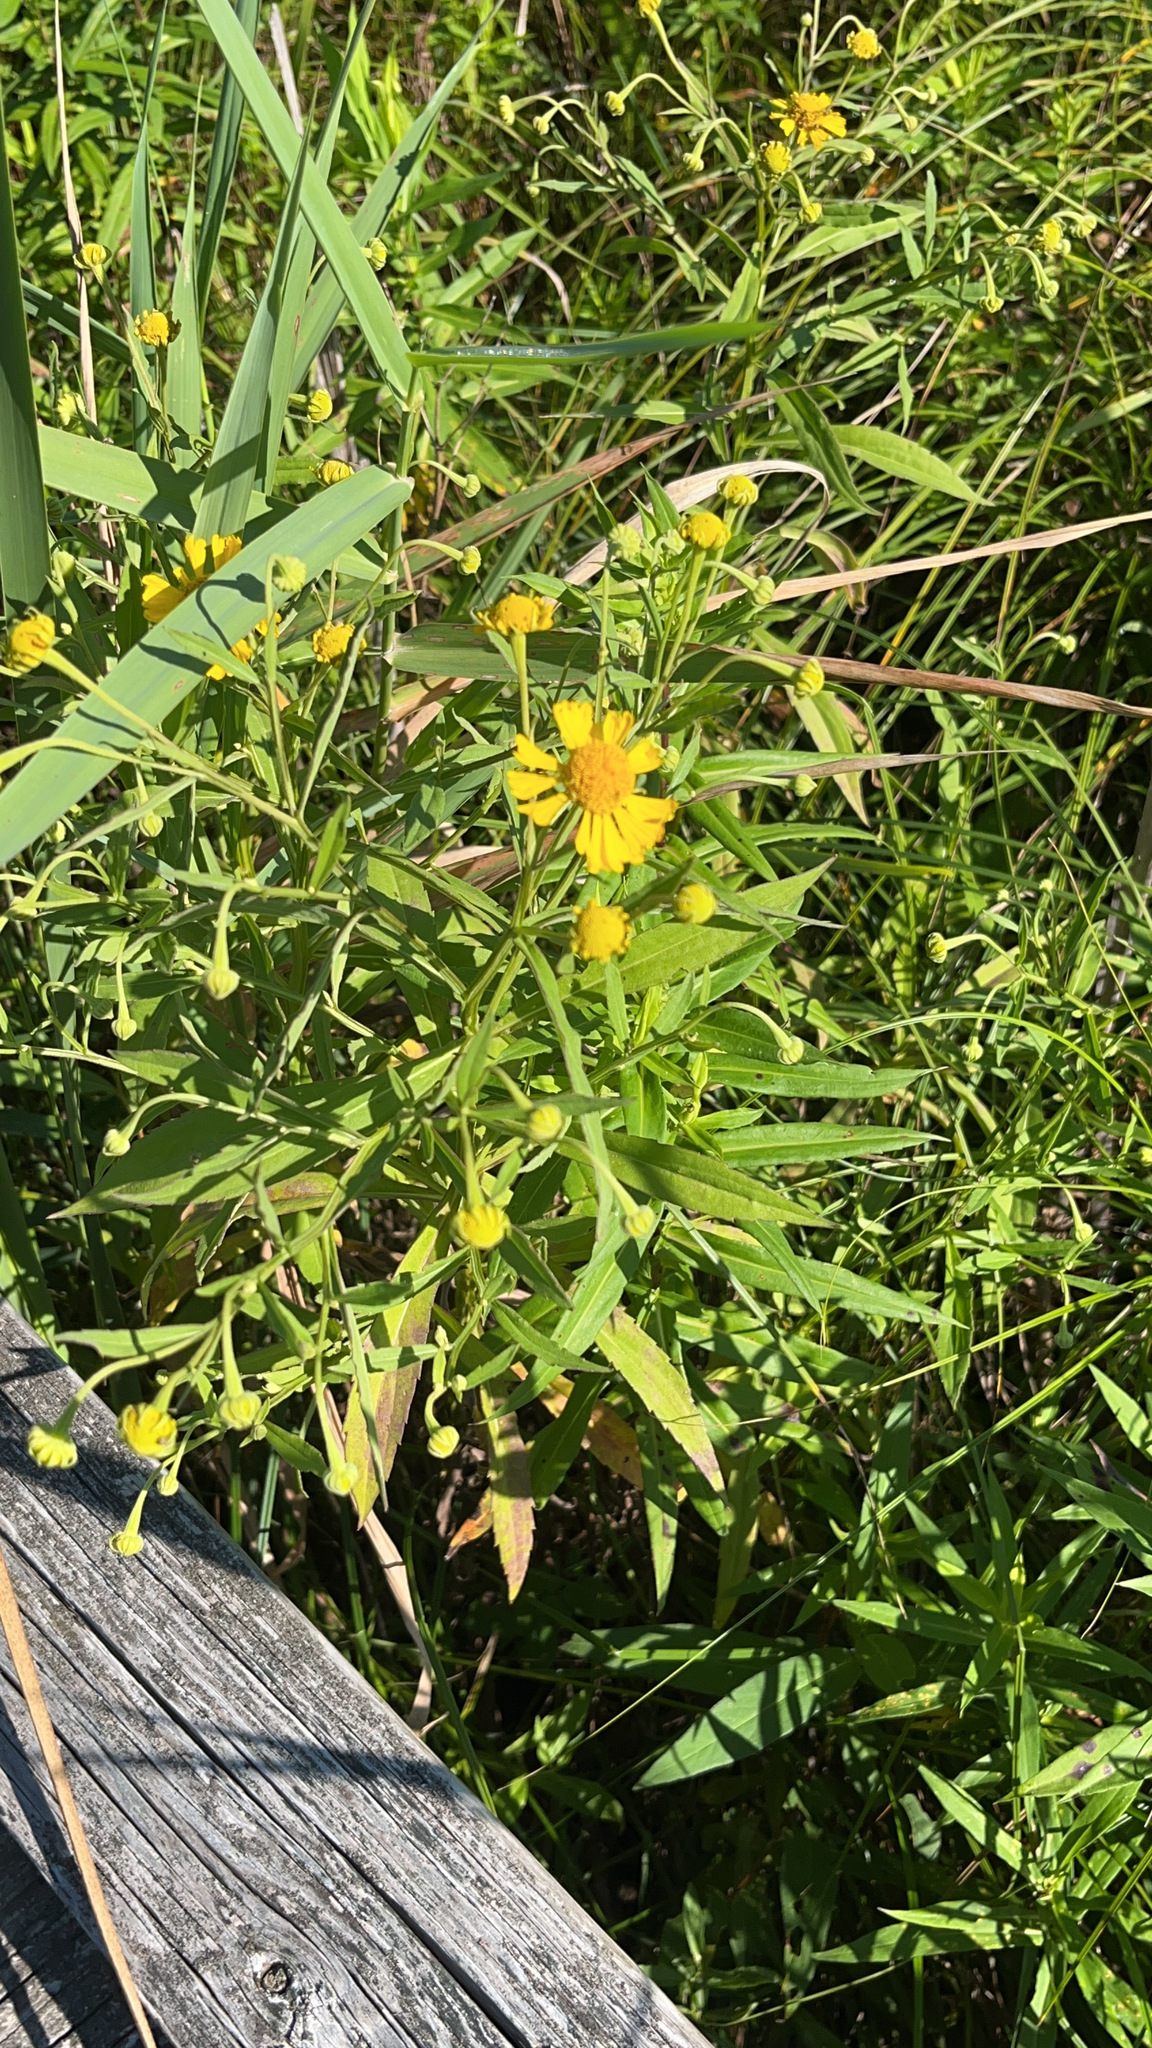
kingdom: Plantae
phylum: Tracheophyta
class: Magnoliopsida
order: Asterales
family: Asteraceae
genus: Helenium
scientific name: Helenium autumnale
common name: Sneezeweed
